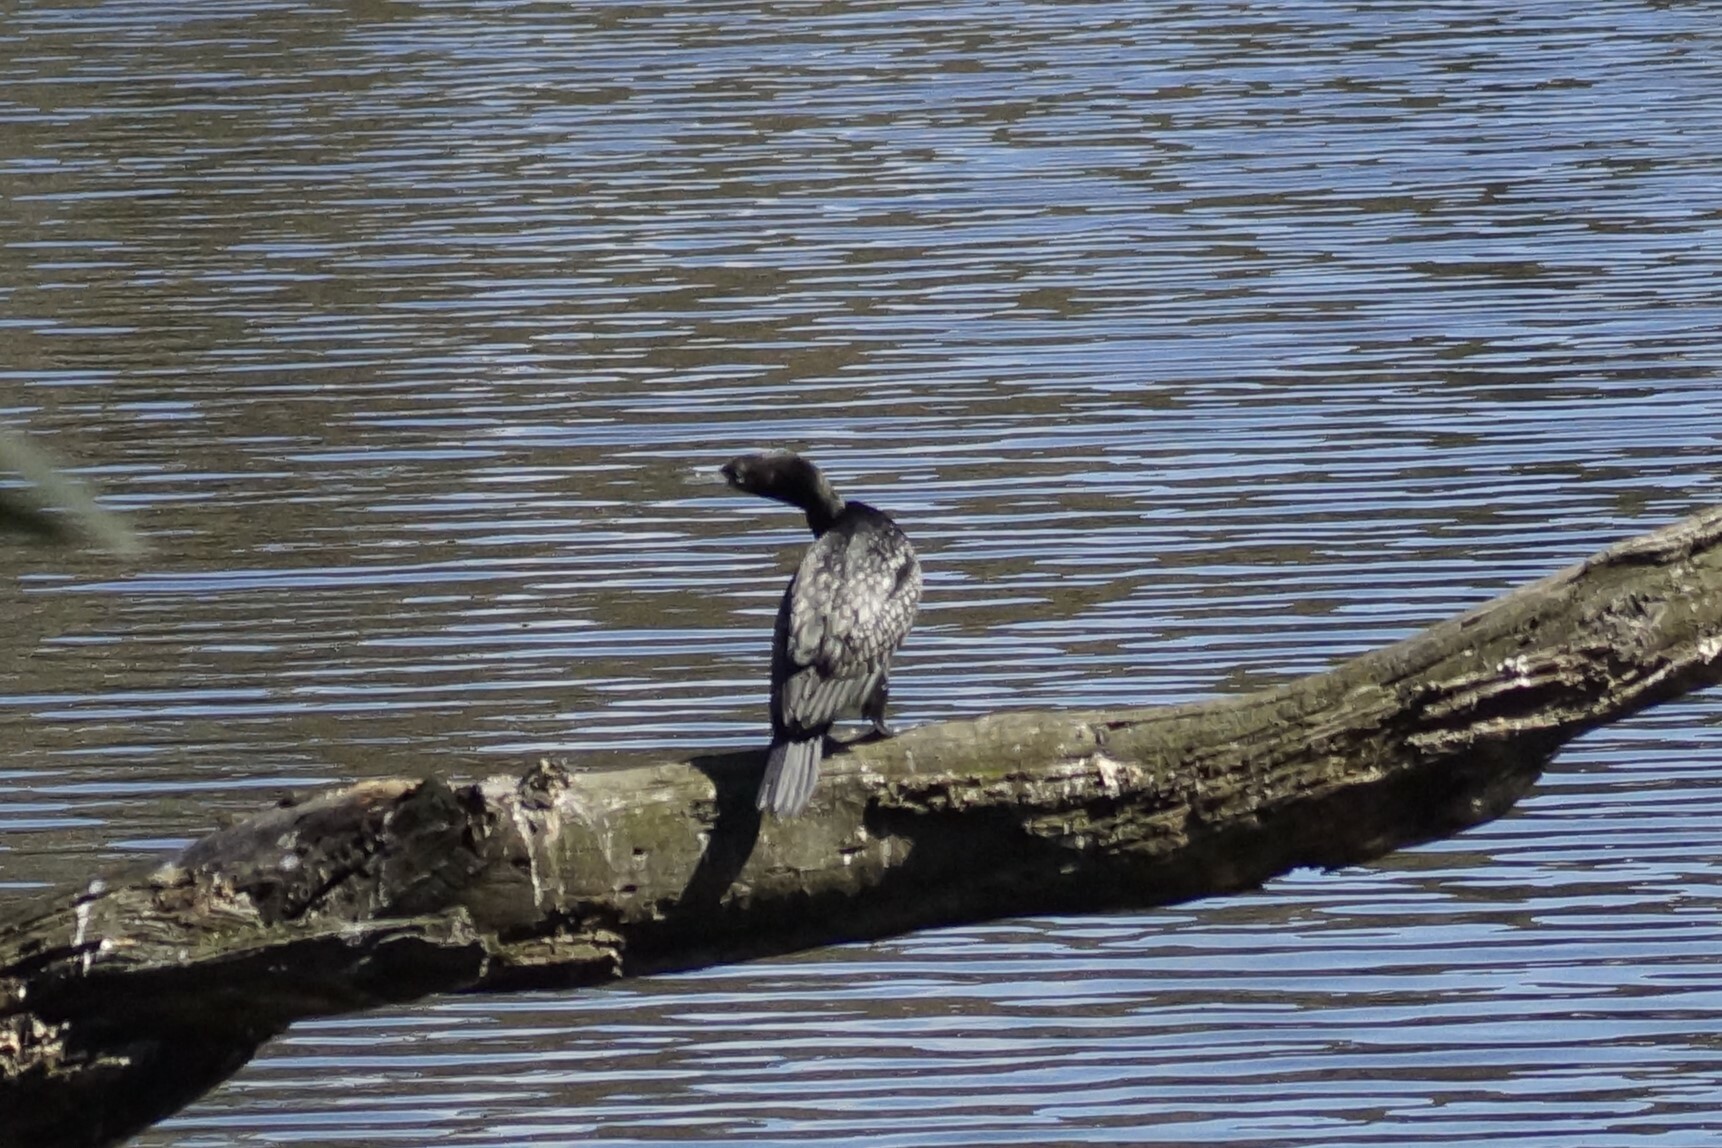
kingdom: Animalia
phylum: Chordata
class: Aves
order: Suliformes
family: Phalacrocoracidae
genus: Phalacrocorax
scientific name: Phalacrocorax sulcirostris
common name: Little black cormorant
